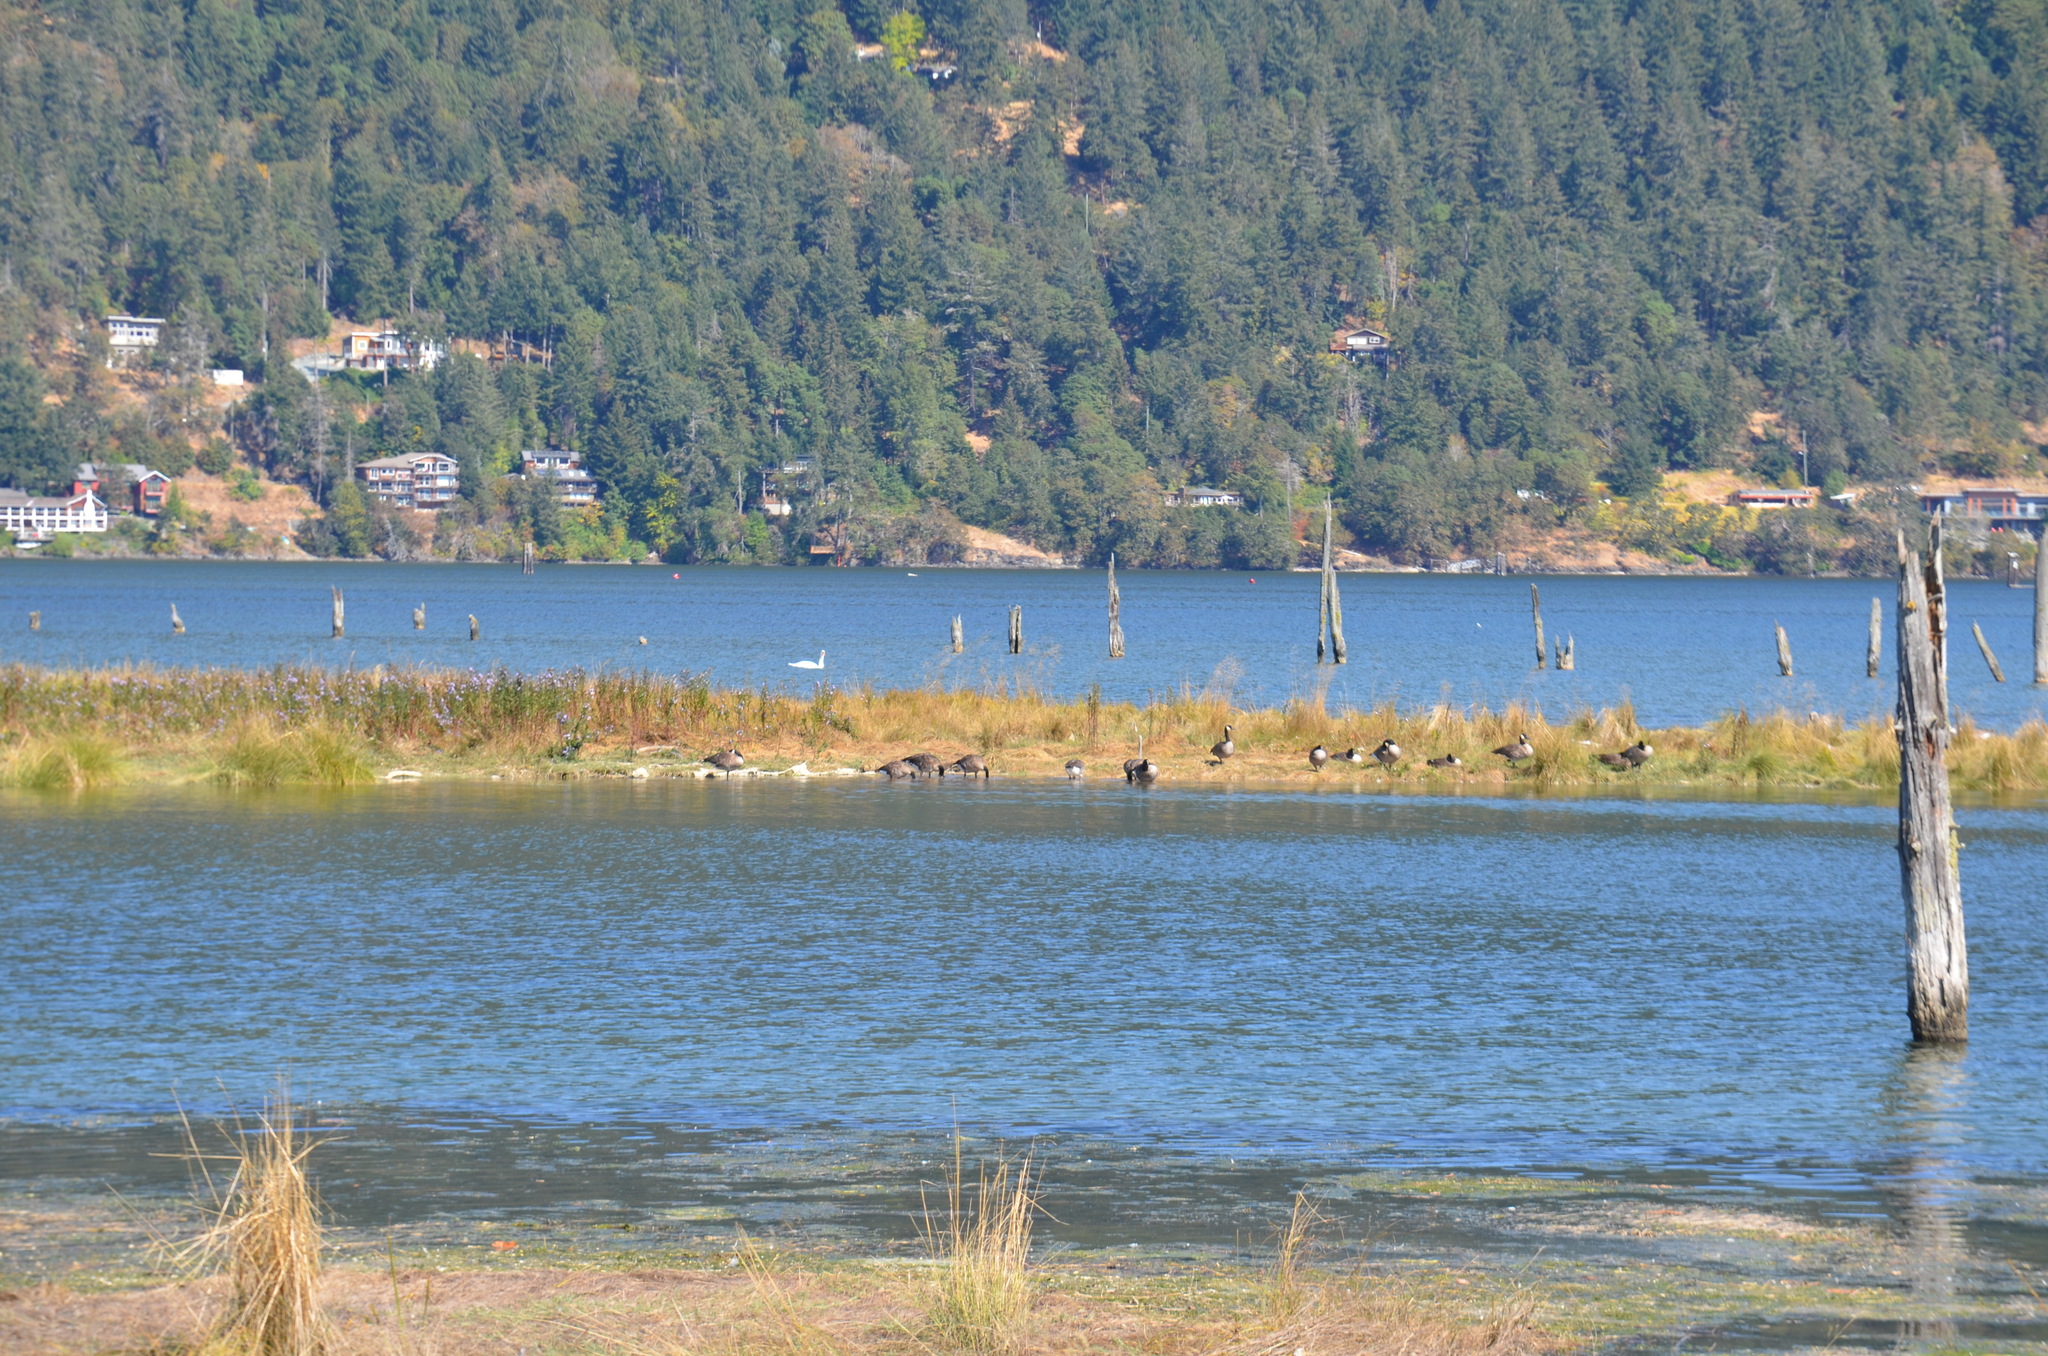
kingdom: Animalia
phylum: Chordata
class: Aves
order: Anseriformes
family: Anatidae
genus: Branta
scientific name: Branta canadensis
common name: Canada goose
